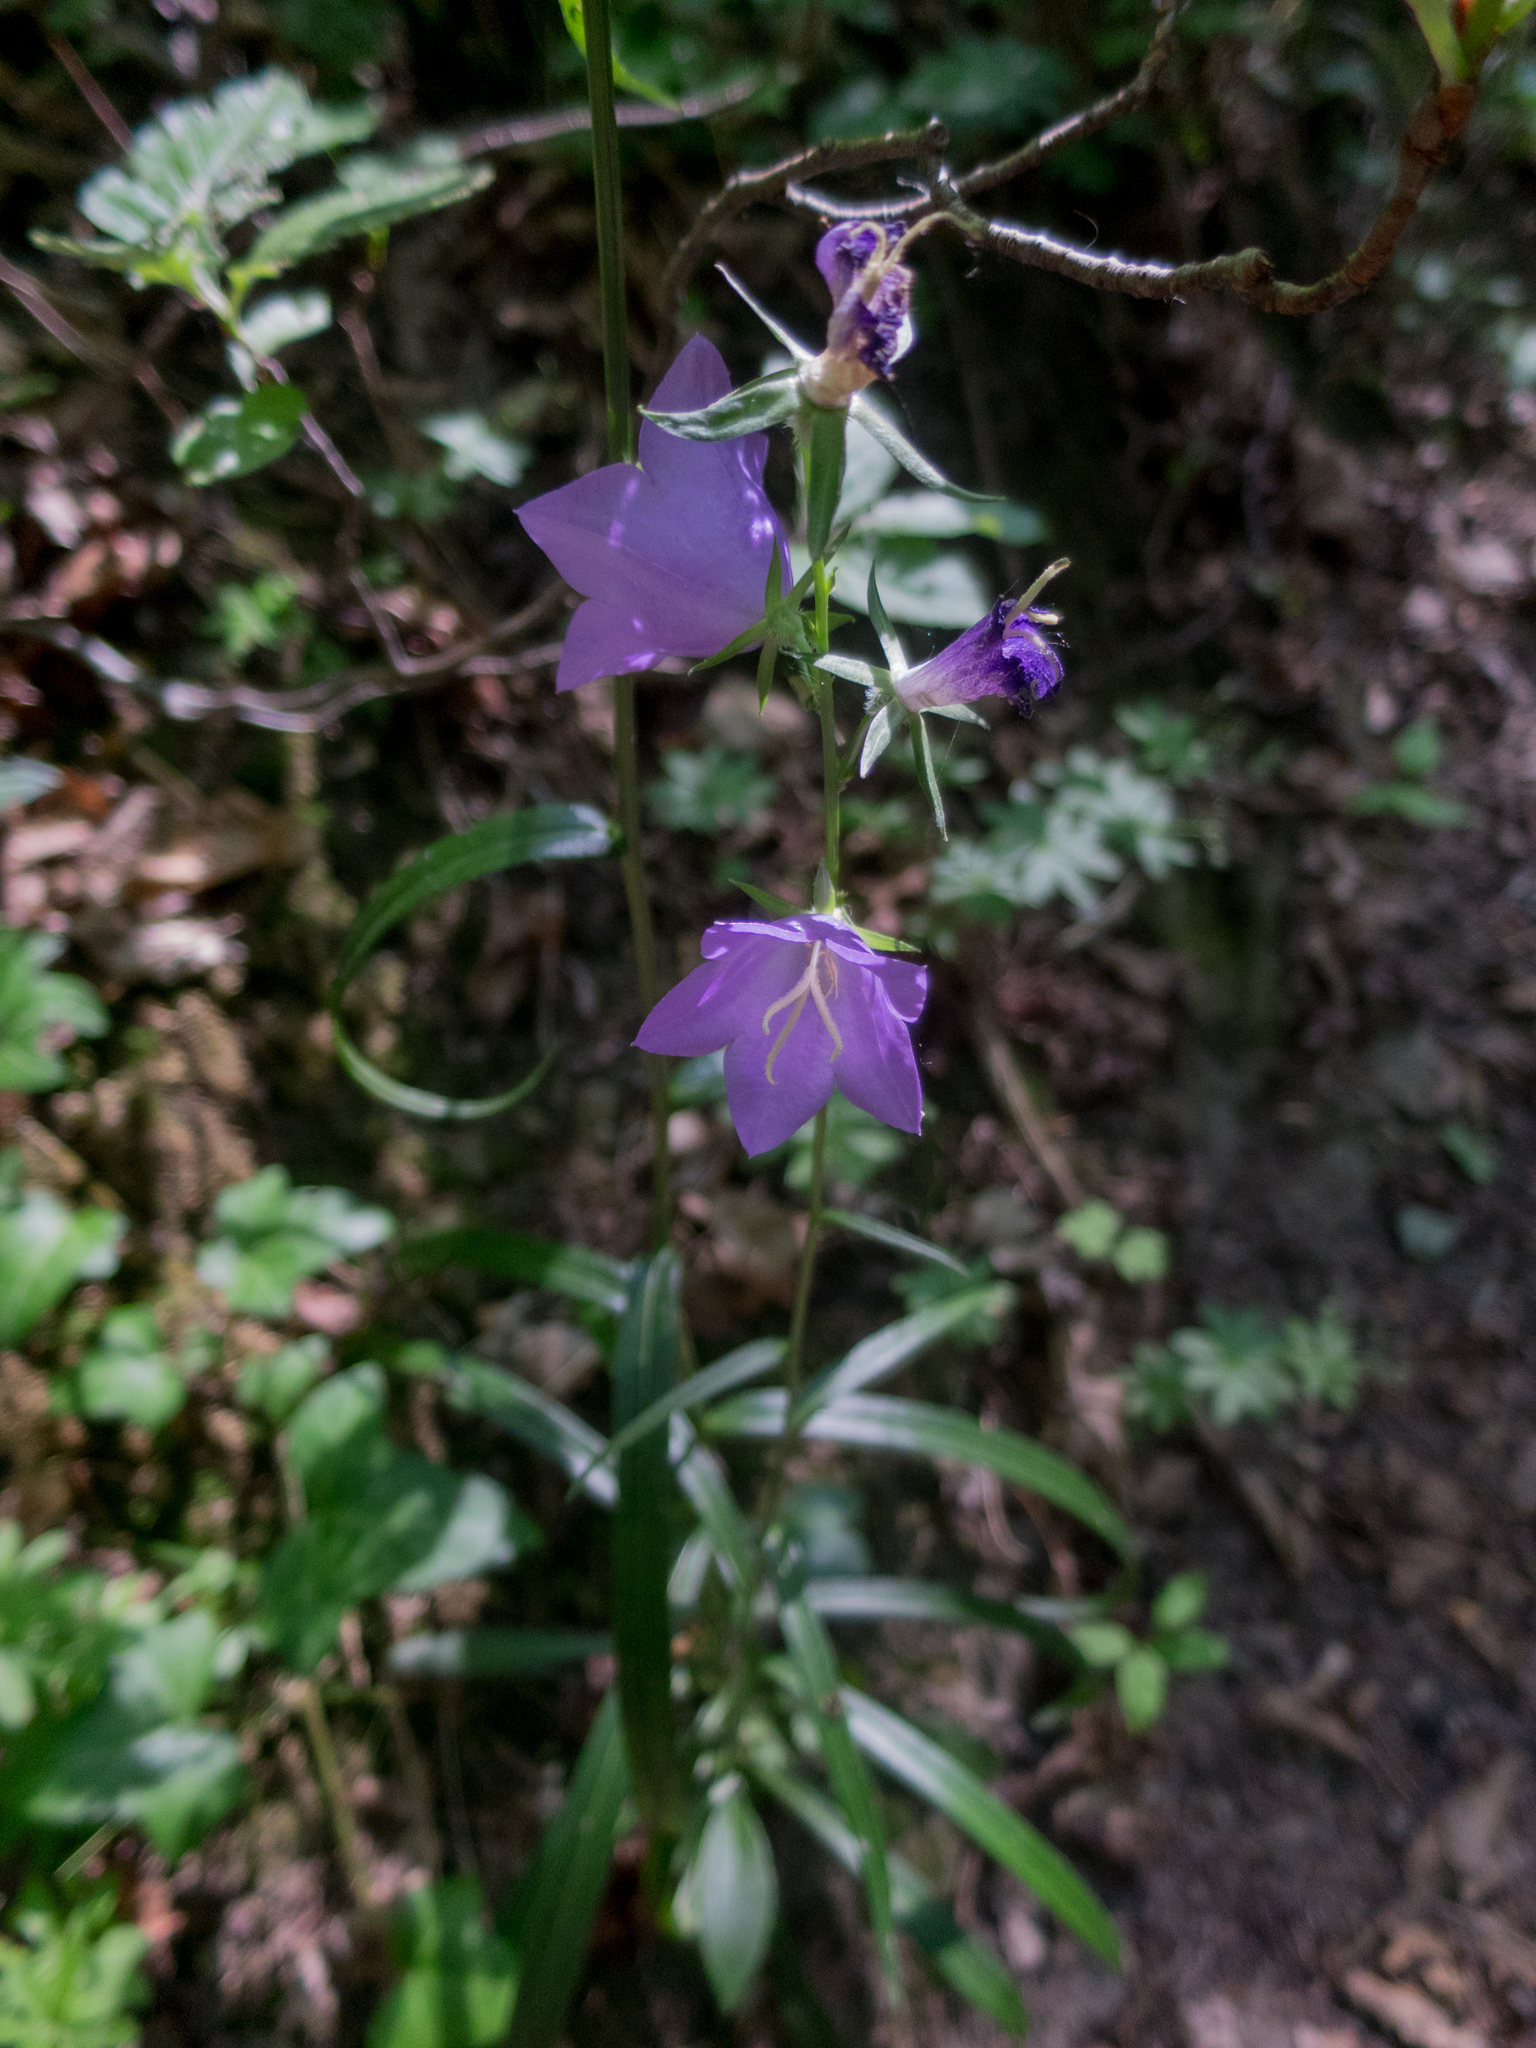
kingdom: Plantae
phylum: Tracheophyta
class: Magnoliopsida
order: Asterales
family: Campanulaceae
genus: Campanula
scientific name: Campanula persicifolia
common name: Peach-leaved bellflower
